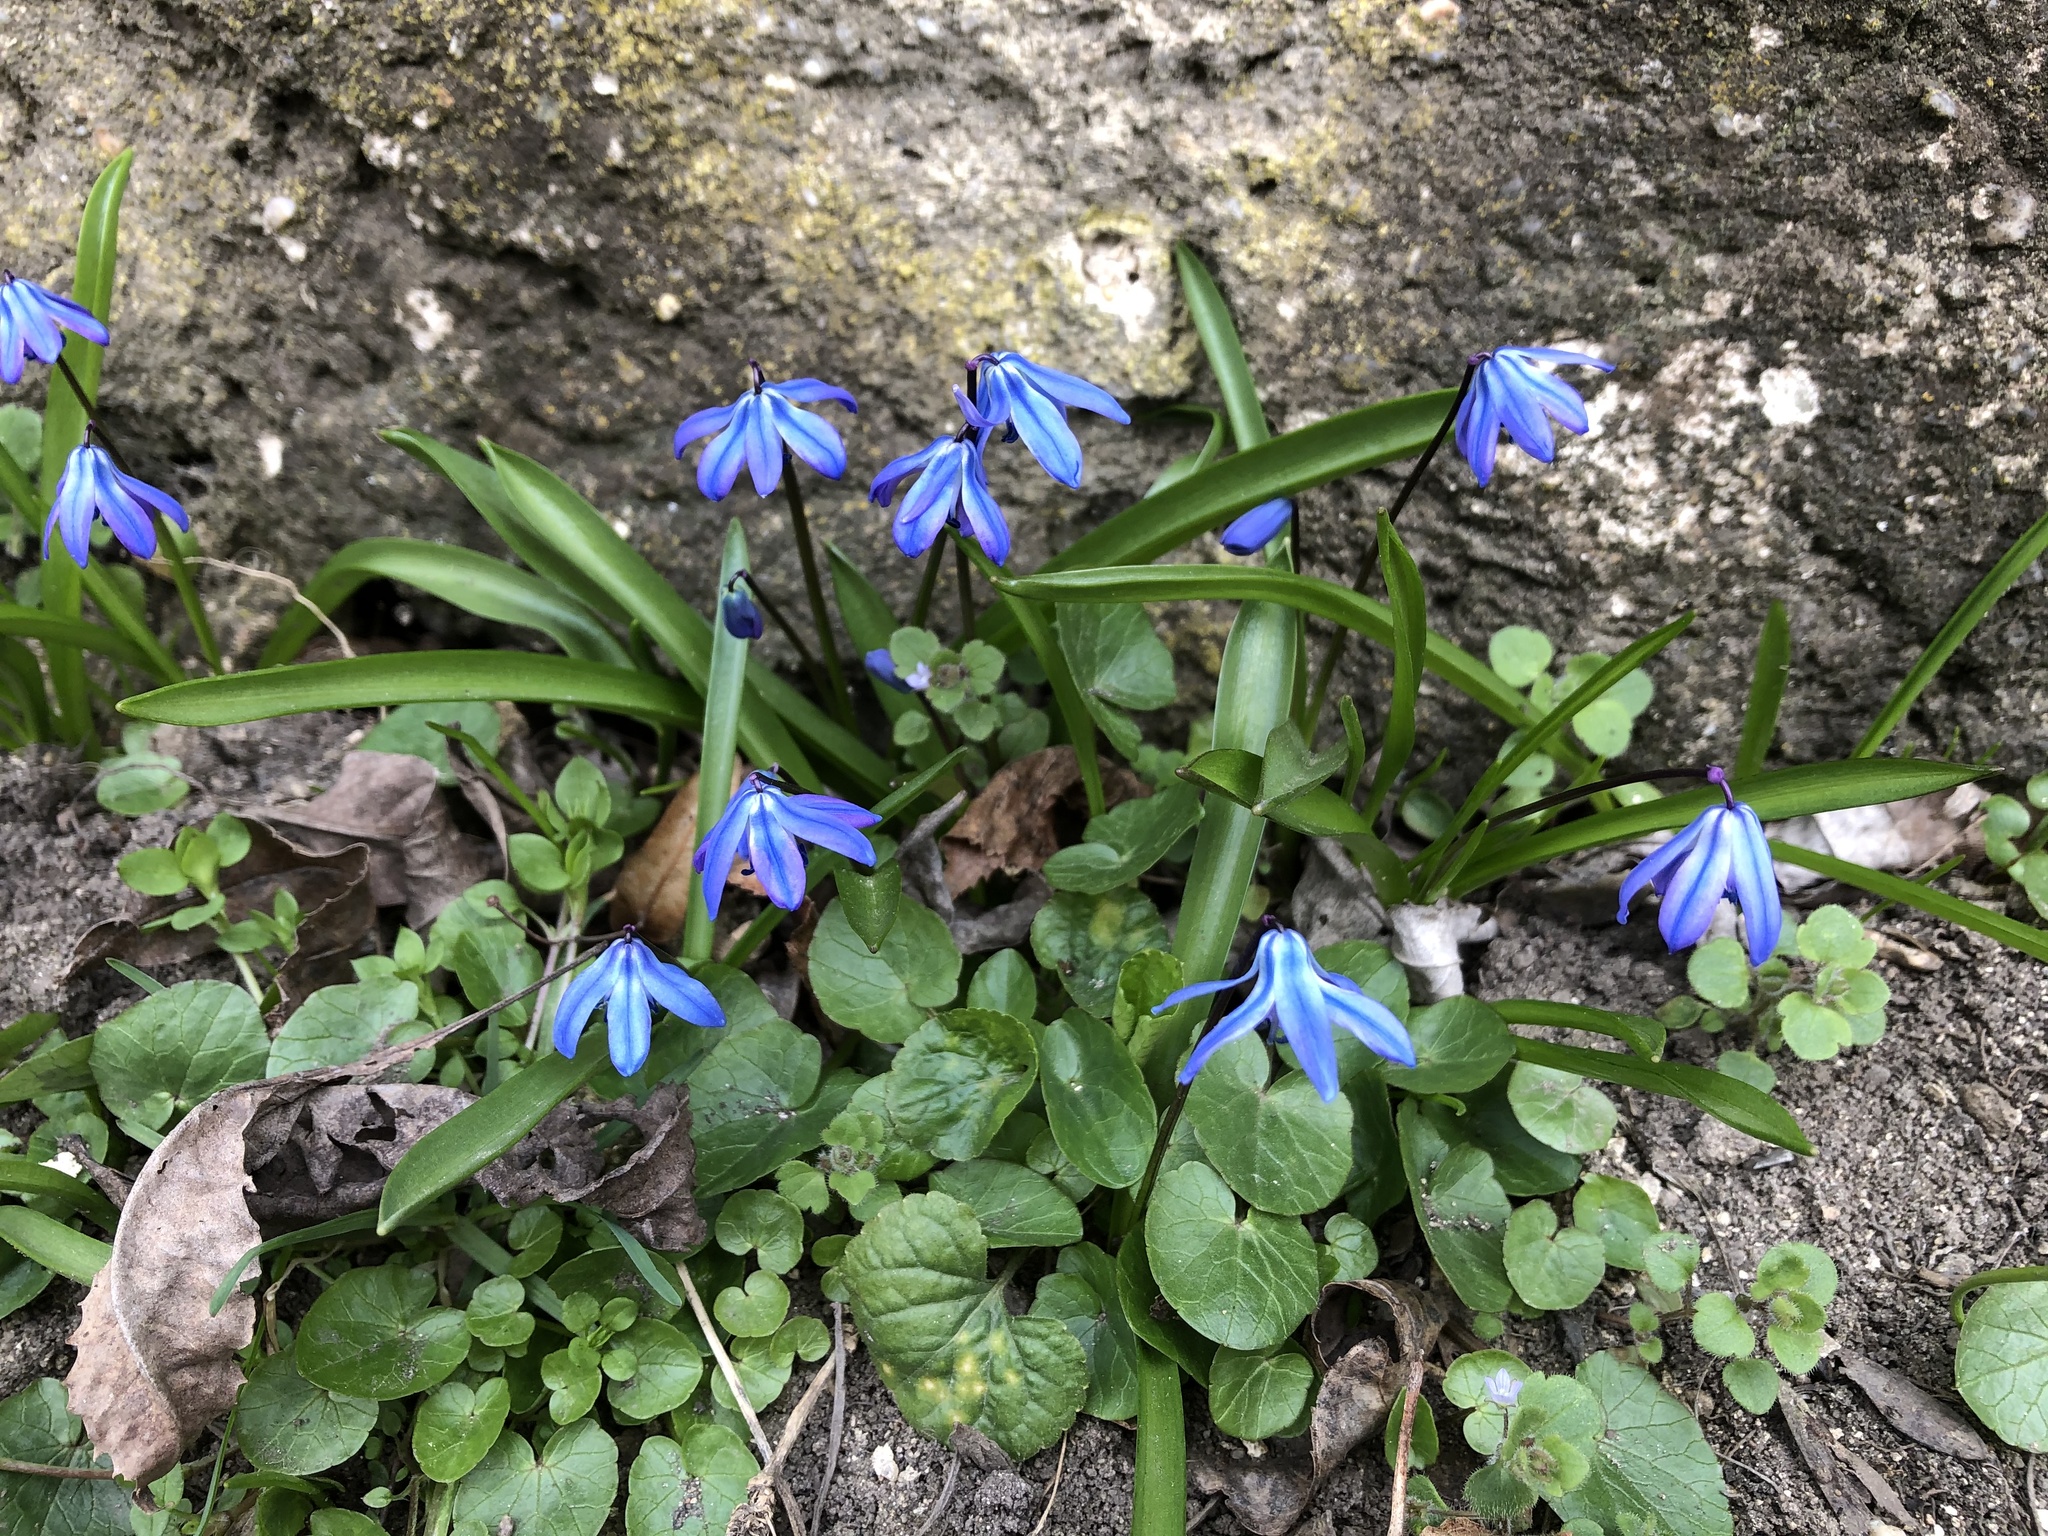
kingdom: Plantae
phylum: Tracheophyta
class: Liliopsida
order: Asparagales
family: Asparagaceae
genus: Scilla
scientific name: Scilla siberica
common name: Siberian squill
